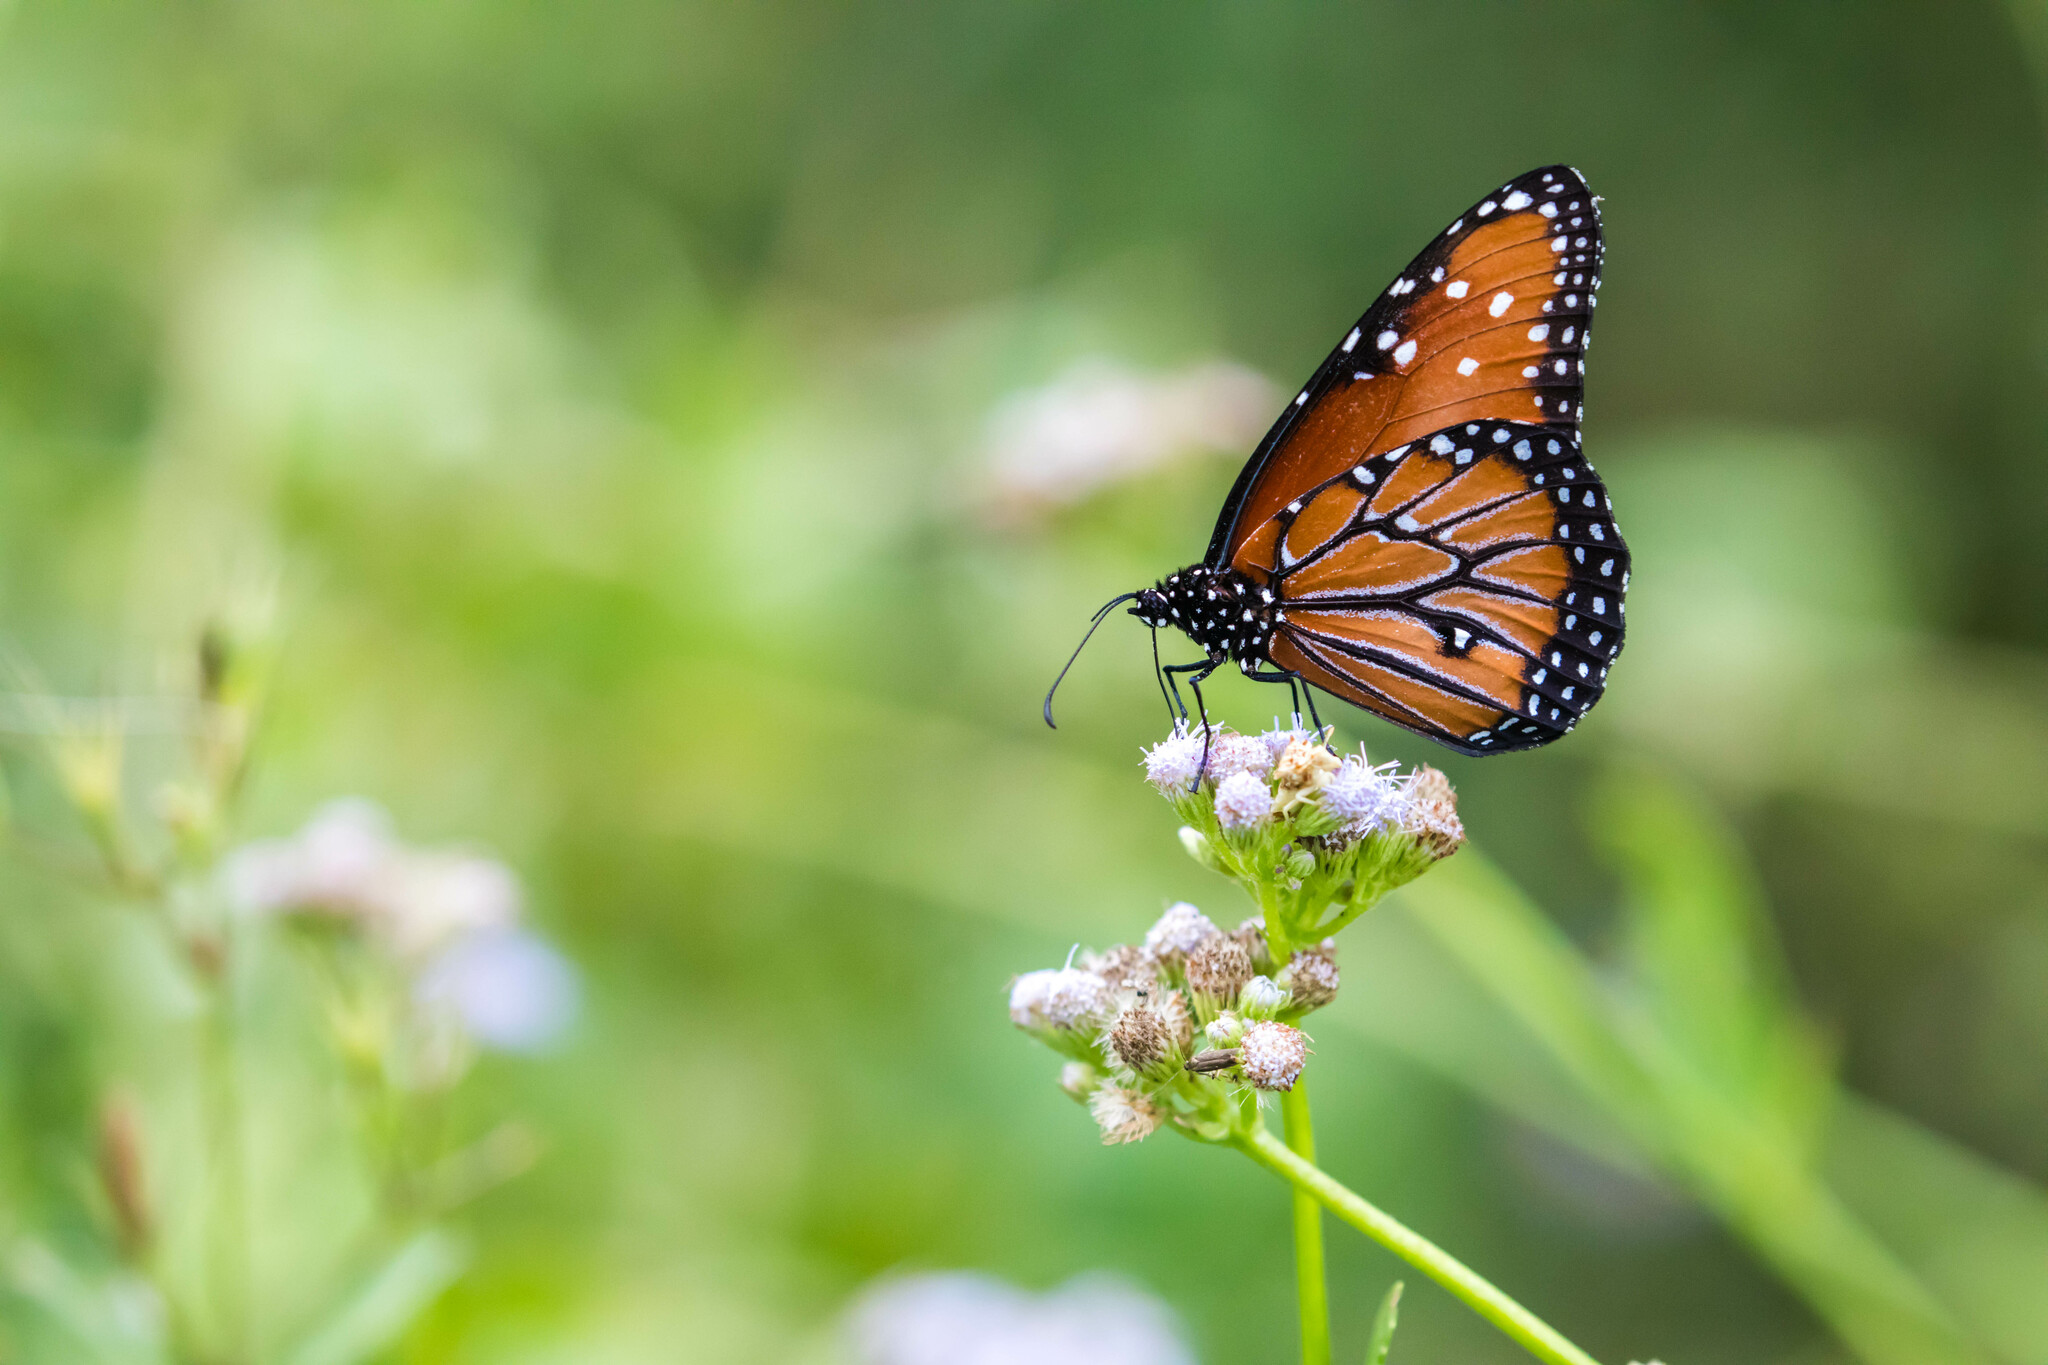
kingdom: Animalia
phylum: Arthropoda
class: Insecta
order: Lepidoptera
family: Nymphalidae
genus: Danaus
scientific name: Danaus gilippus
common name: Queen
